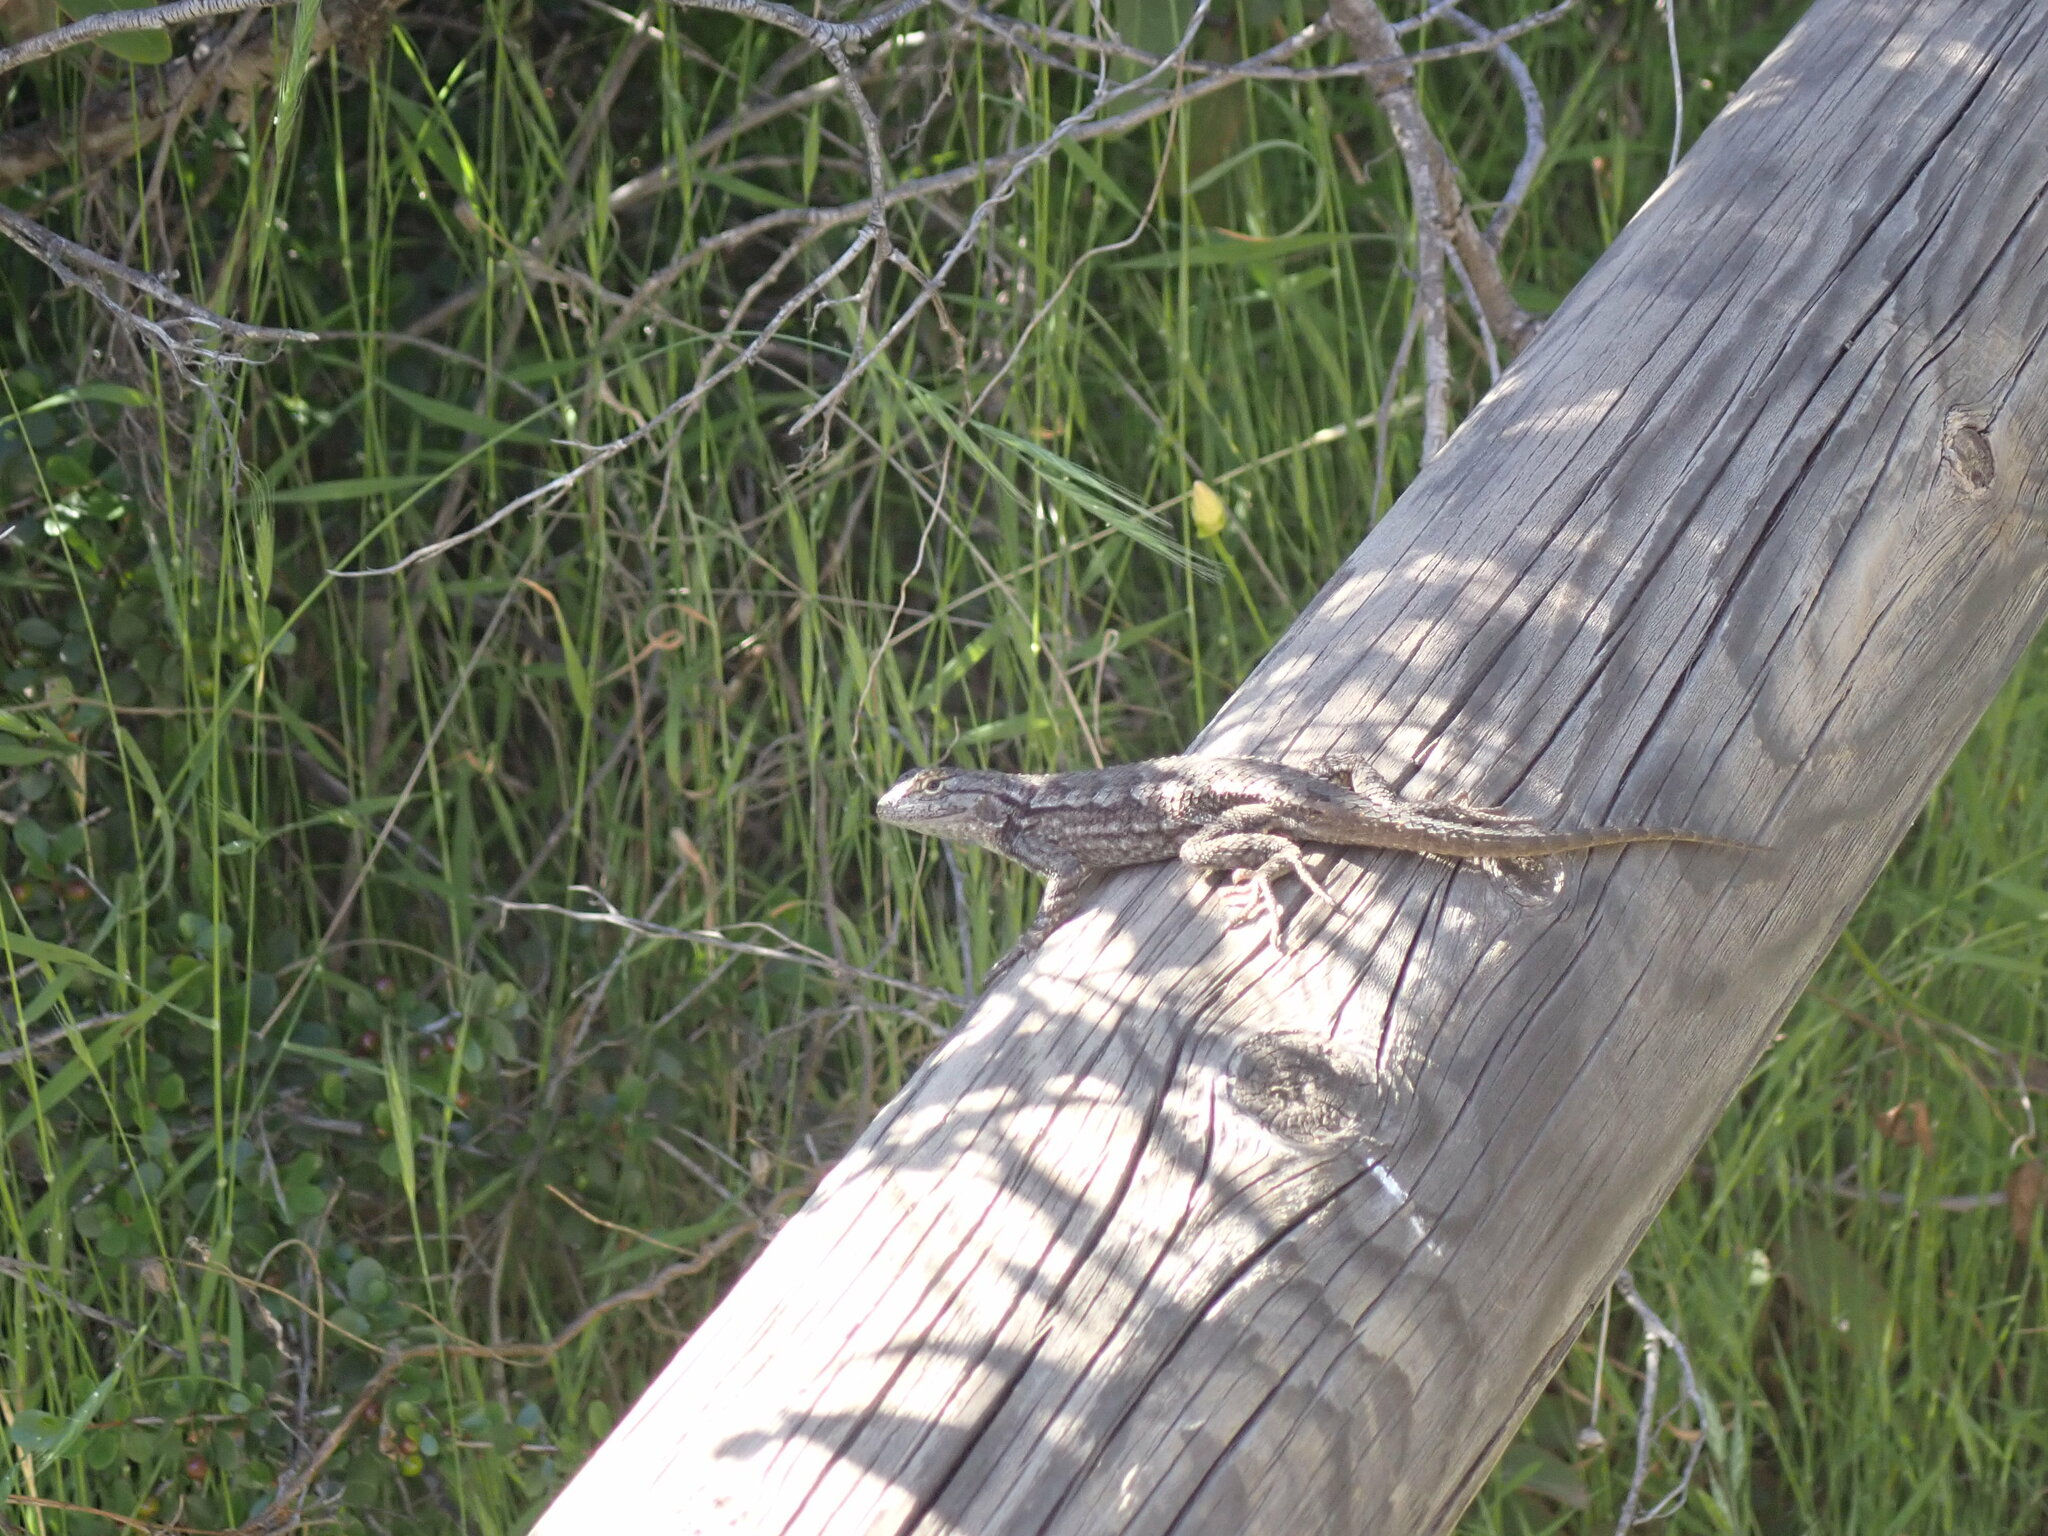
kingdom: Animalia
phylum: Chordata
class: Squamata
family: Phrynosomatidae
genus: Sceloporus
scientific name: Sceloporus occidentalis
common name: Western fence lizard
